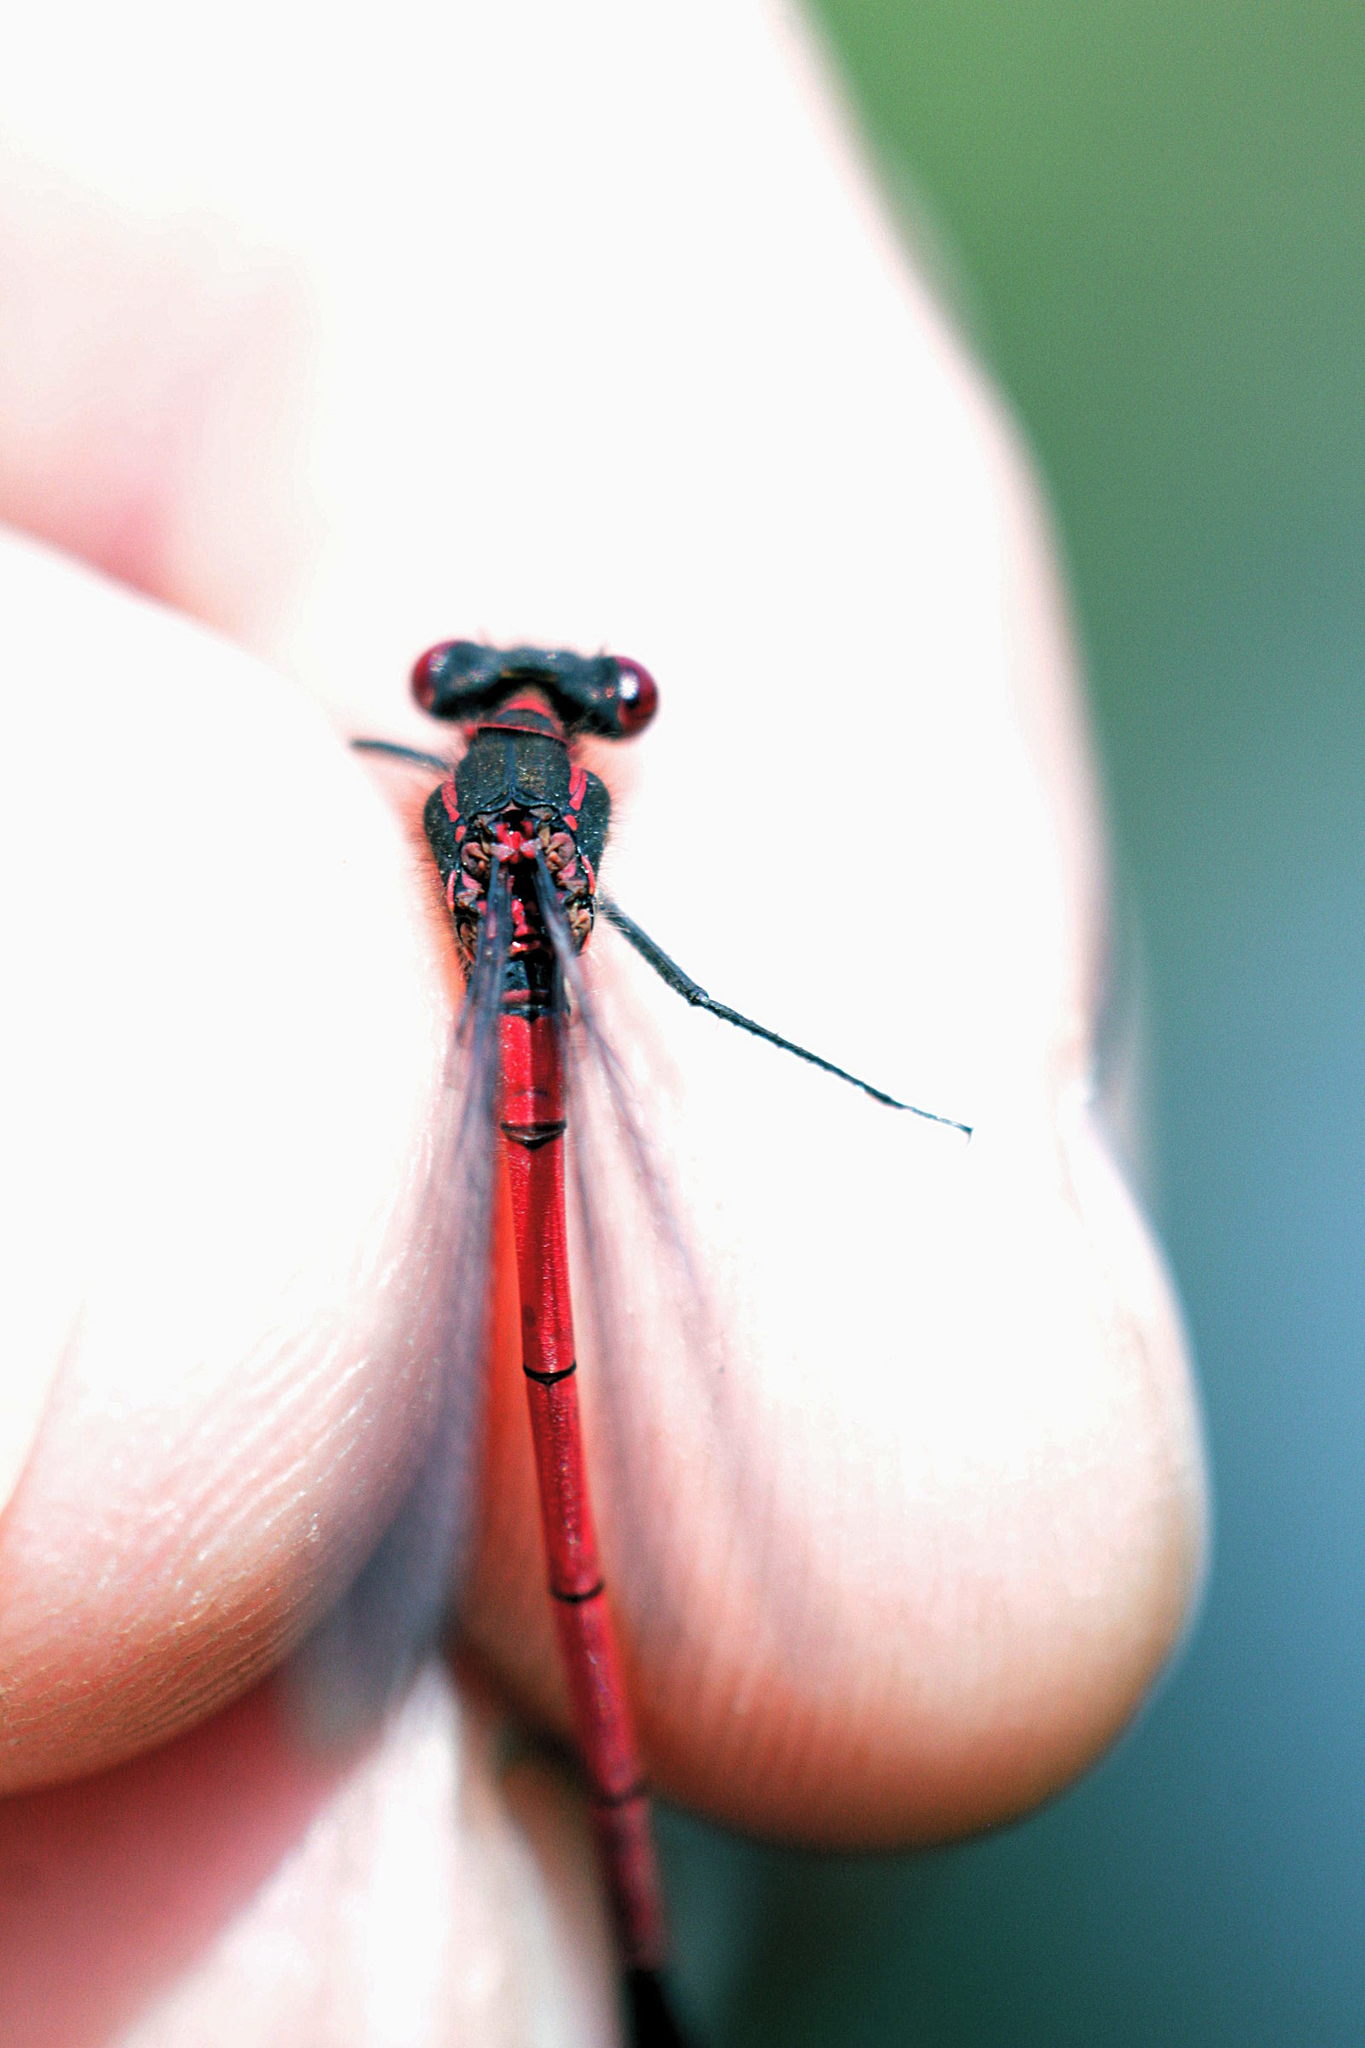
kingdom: Animalia
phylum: Arthropoda
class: Insecta
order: Odonata
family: Coenagrionidae
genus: Pyrrhosoma
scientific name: Pyrrhosoma nymphula
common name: Large red damsel
